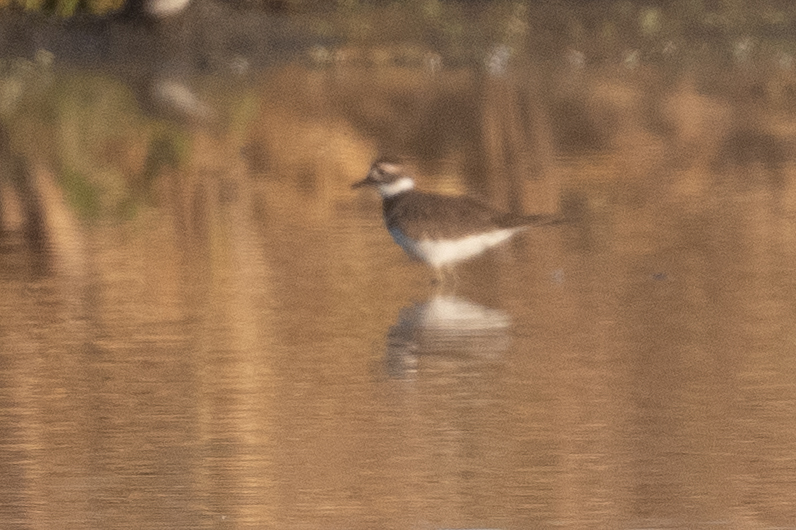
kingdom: Animalia
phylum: Chordata
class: Aves
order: Charadriiformes
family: Charadriidae
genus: Charadrius
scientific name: Charadrius vociferus
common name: Killdeer
